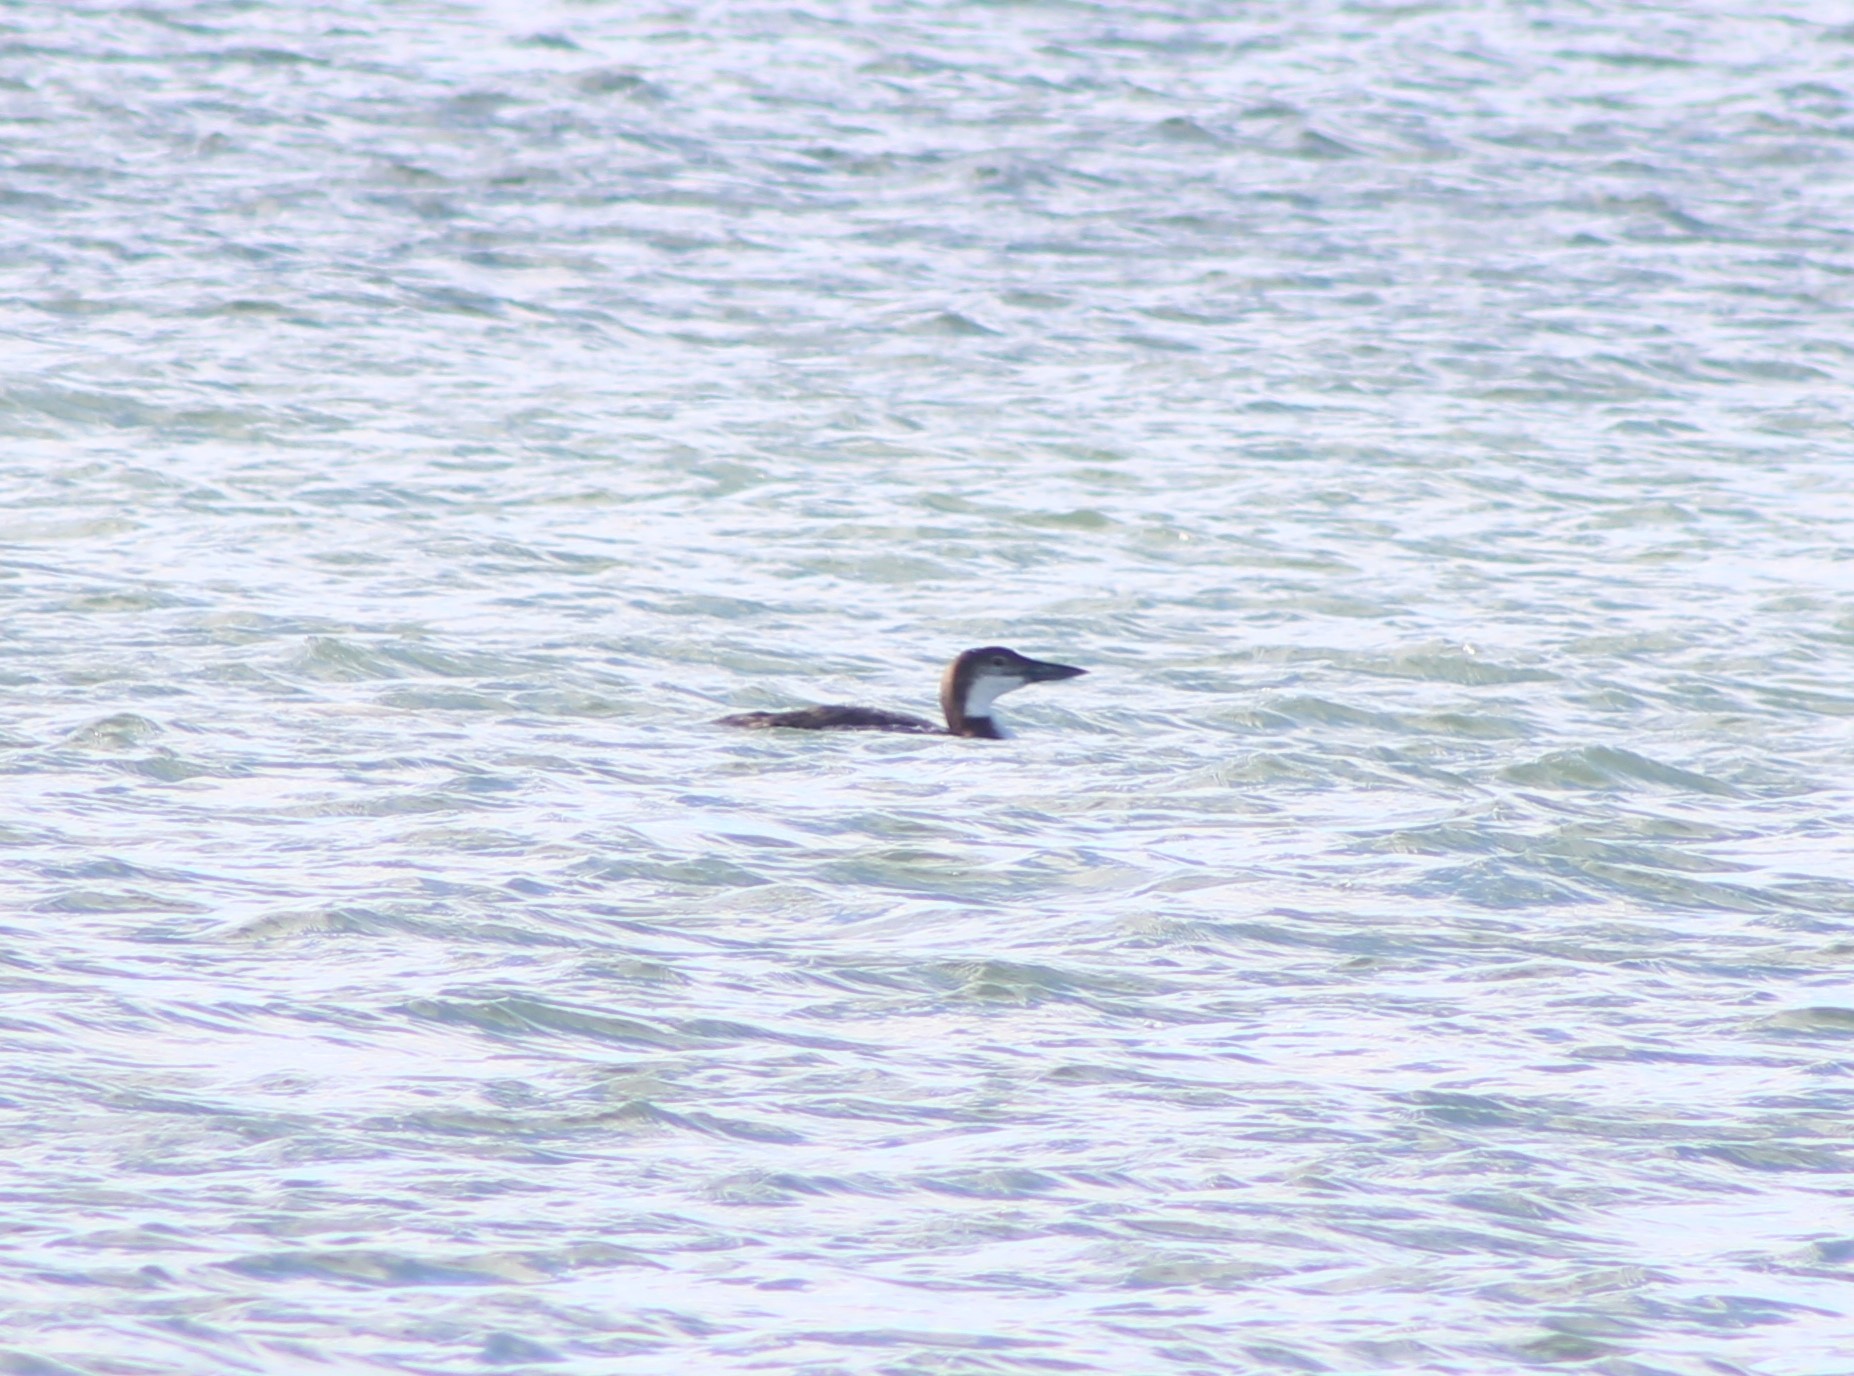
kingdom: Animalia
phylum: Chordata
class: Aves
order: Gaviiformes
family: Gaviidae
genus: Gavia
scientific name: Gavia immer
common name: Common loon
